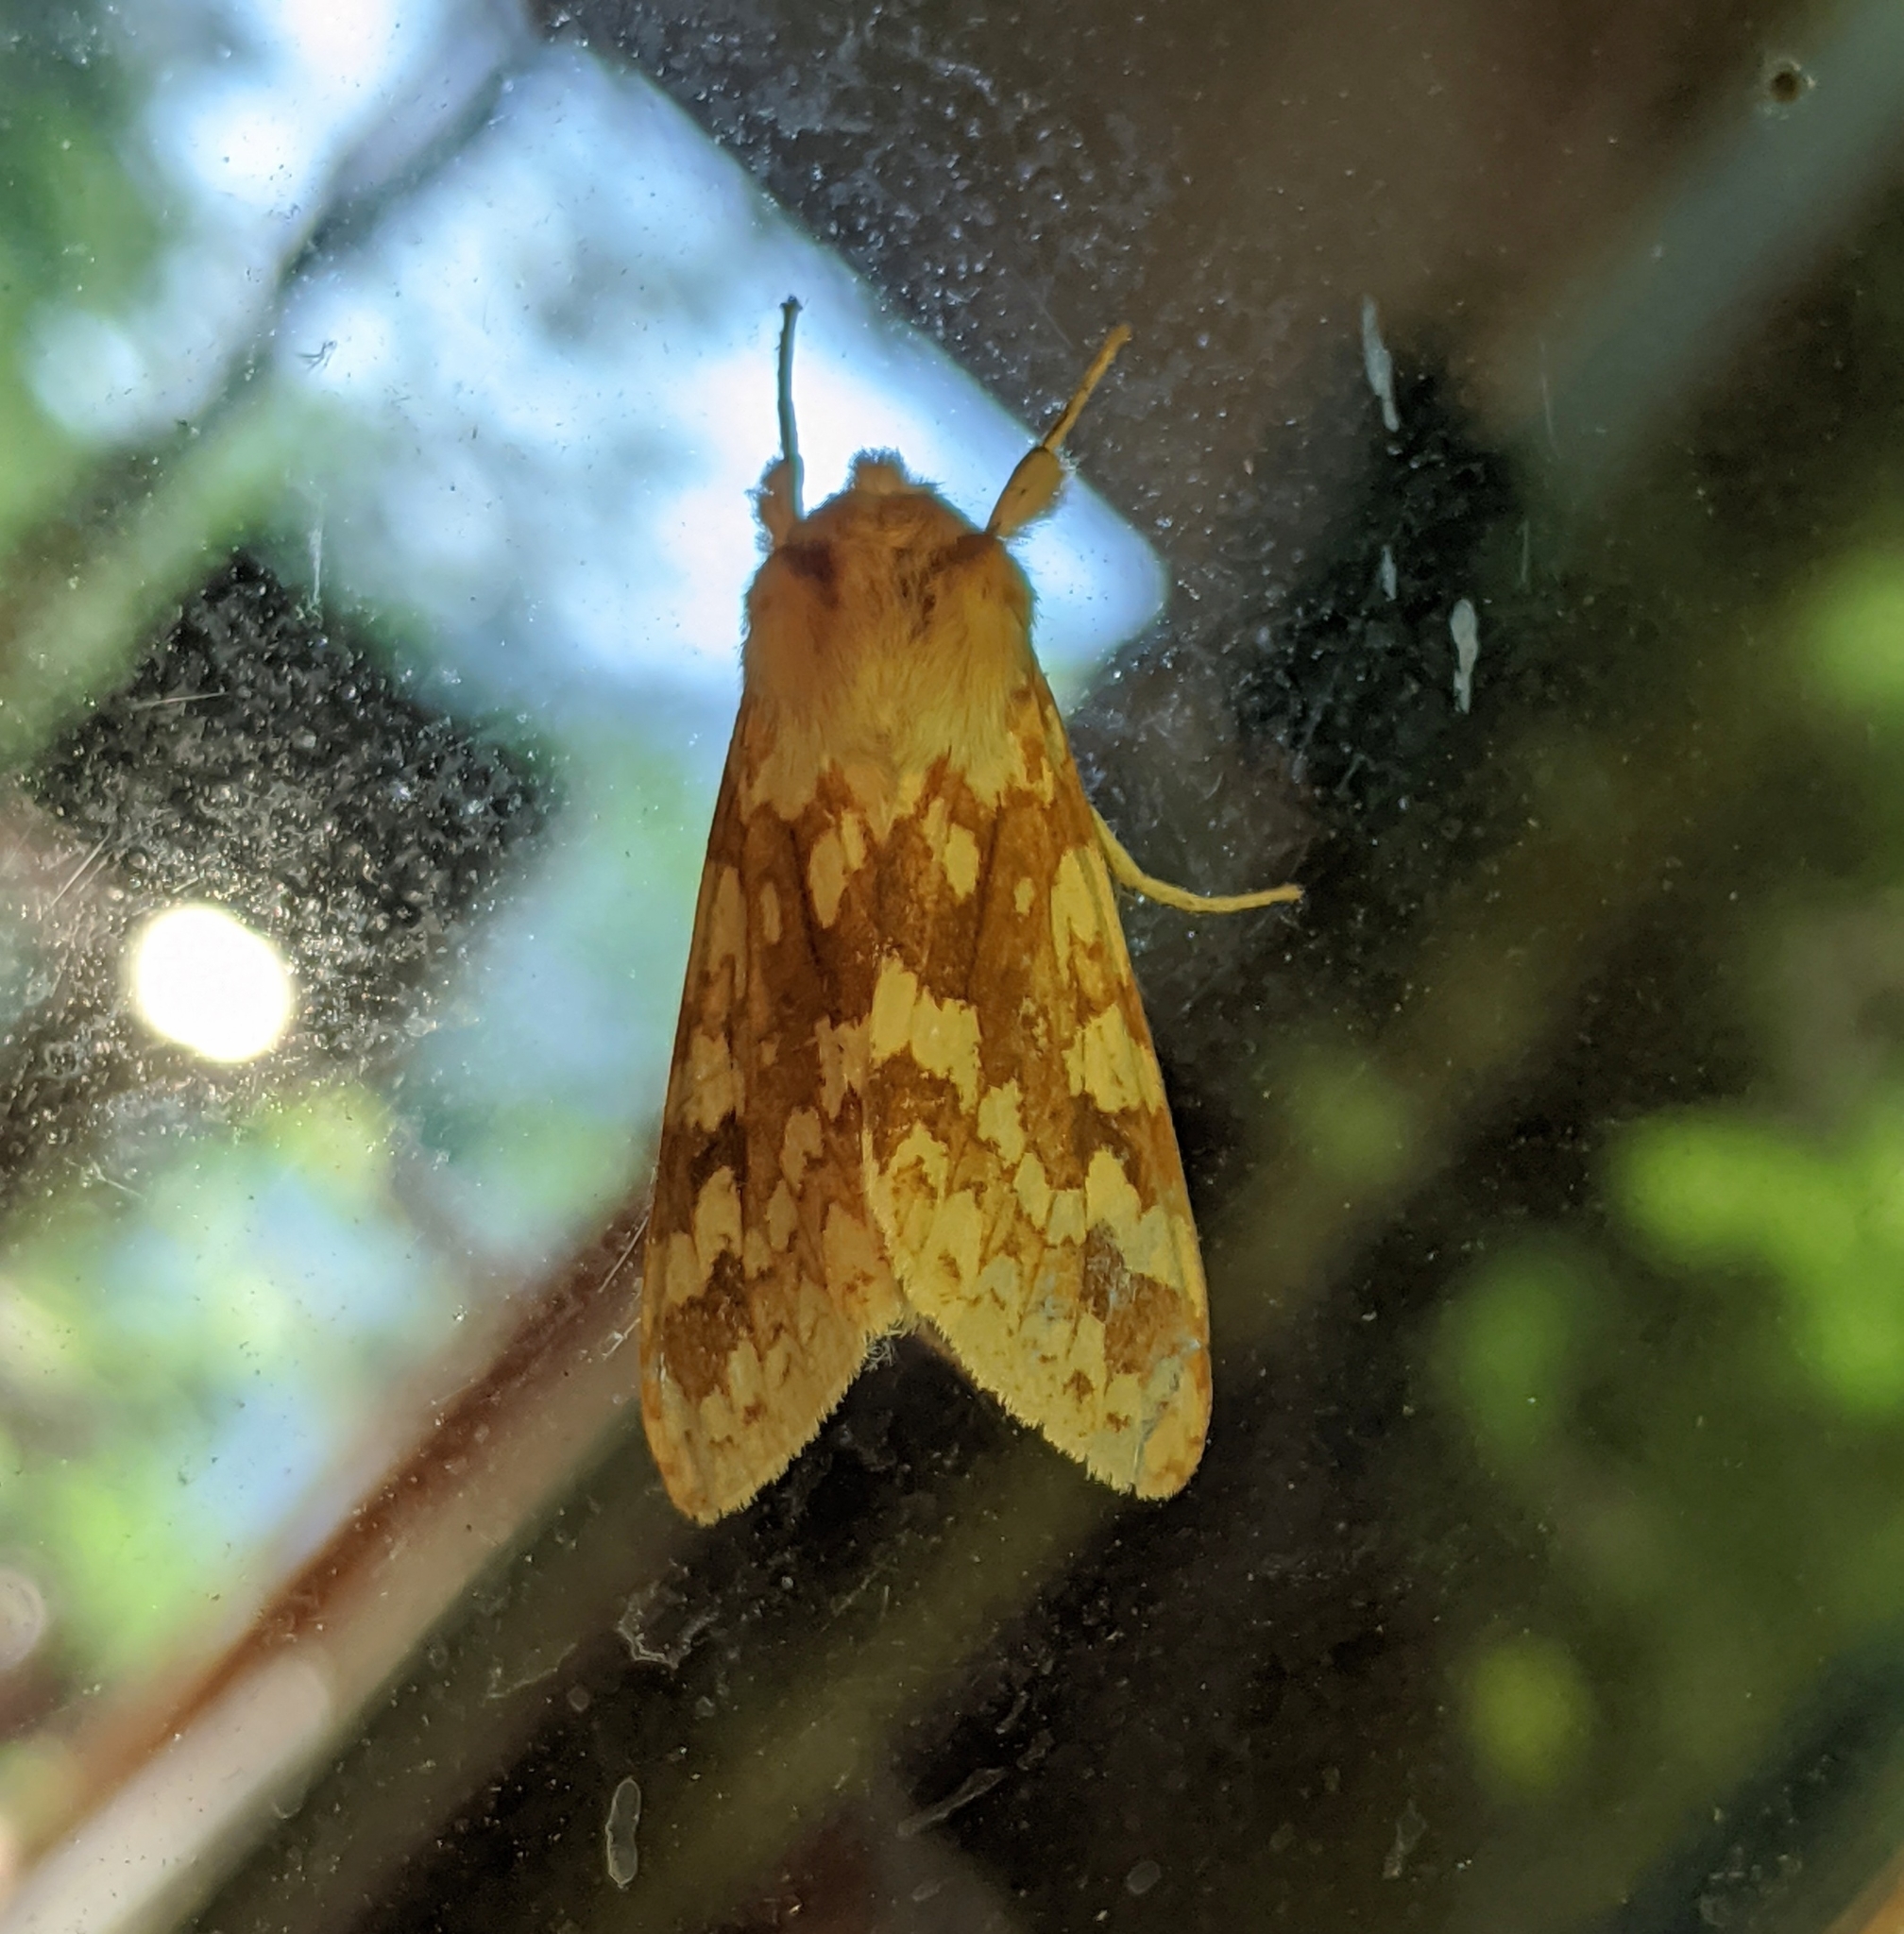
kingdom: Animalia
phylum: Arthropoda
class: Insecta
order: Lepidoptera
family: Erebidae
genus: Lophocampa
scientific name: Lophocampa maculata
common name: Spotted tussock moth
